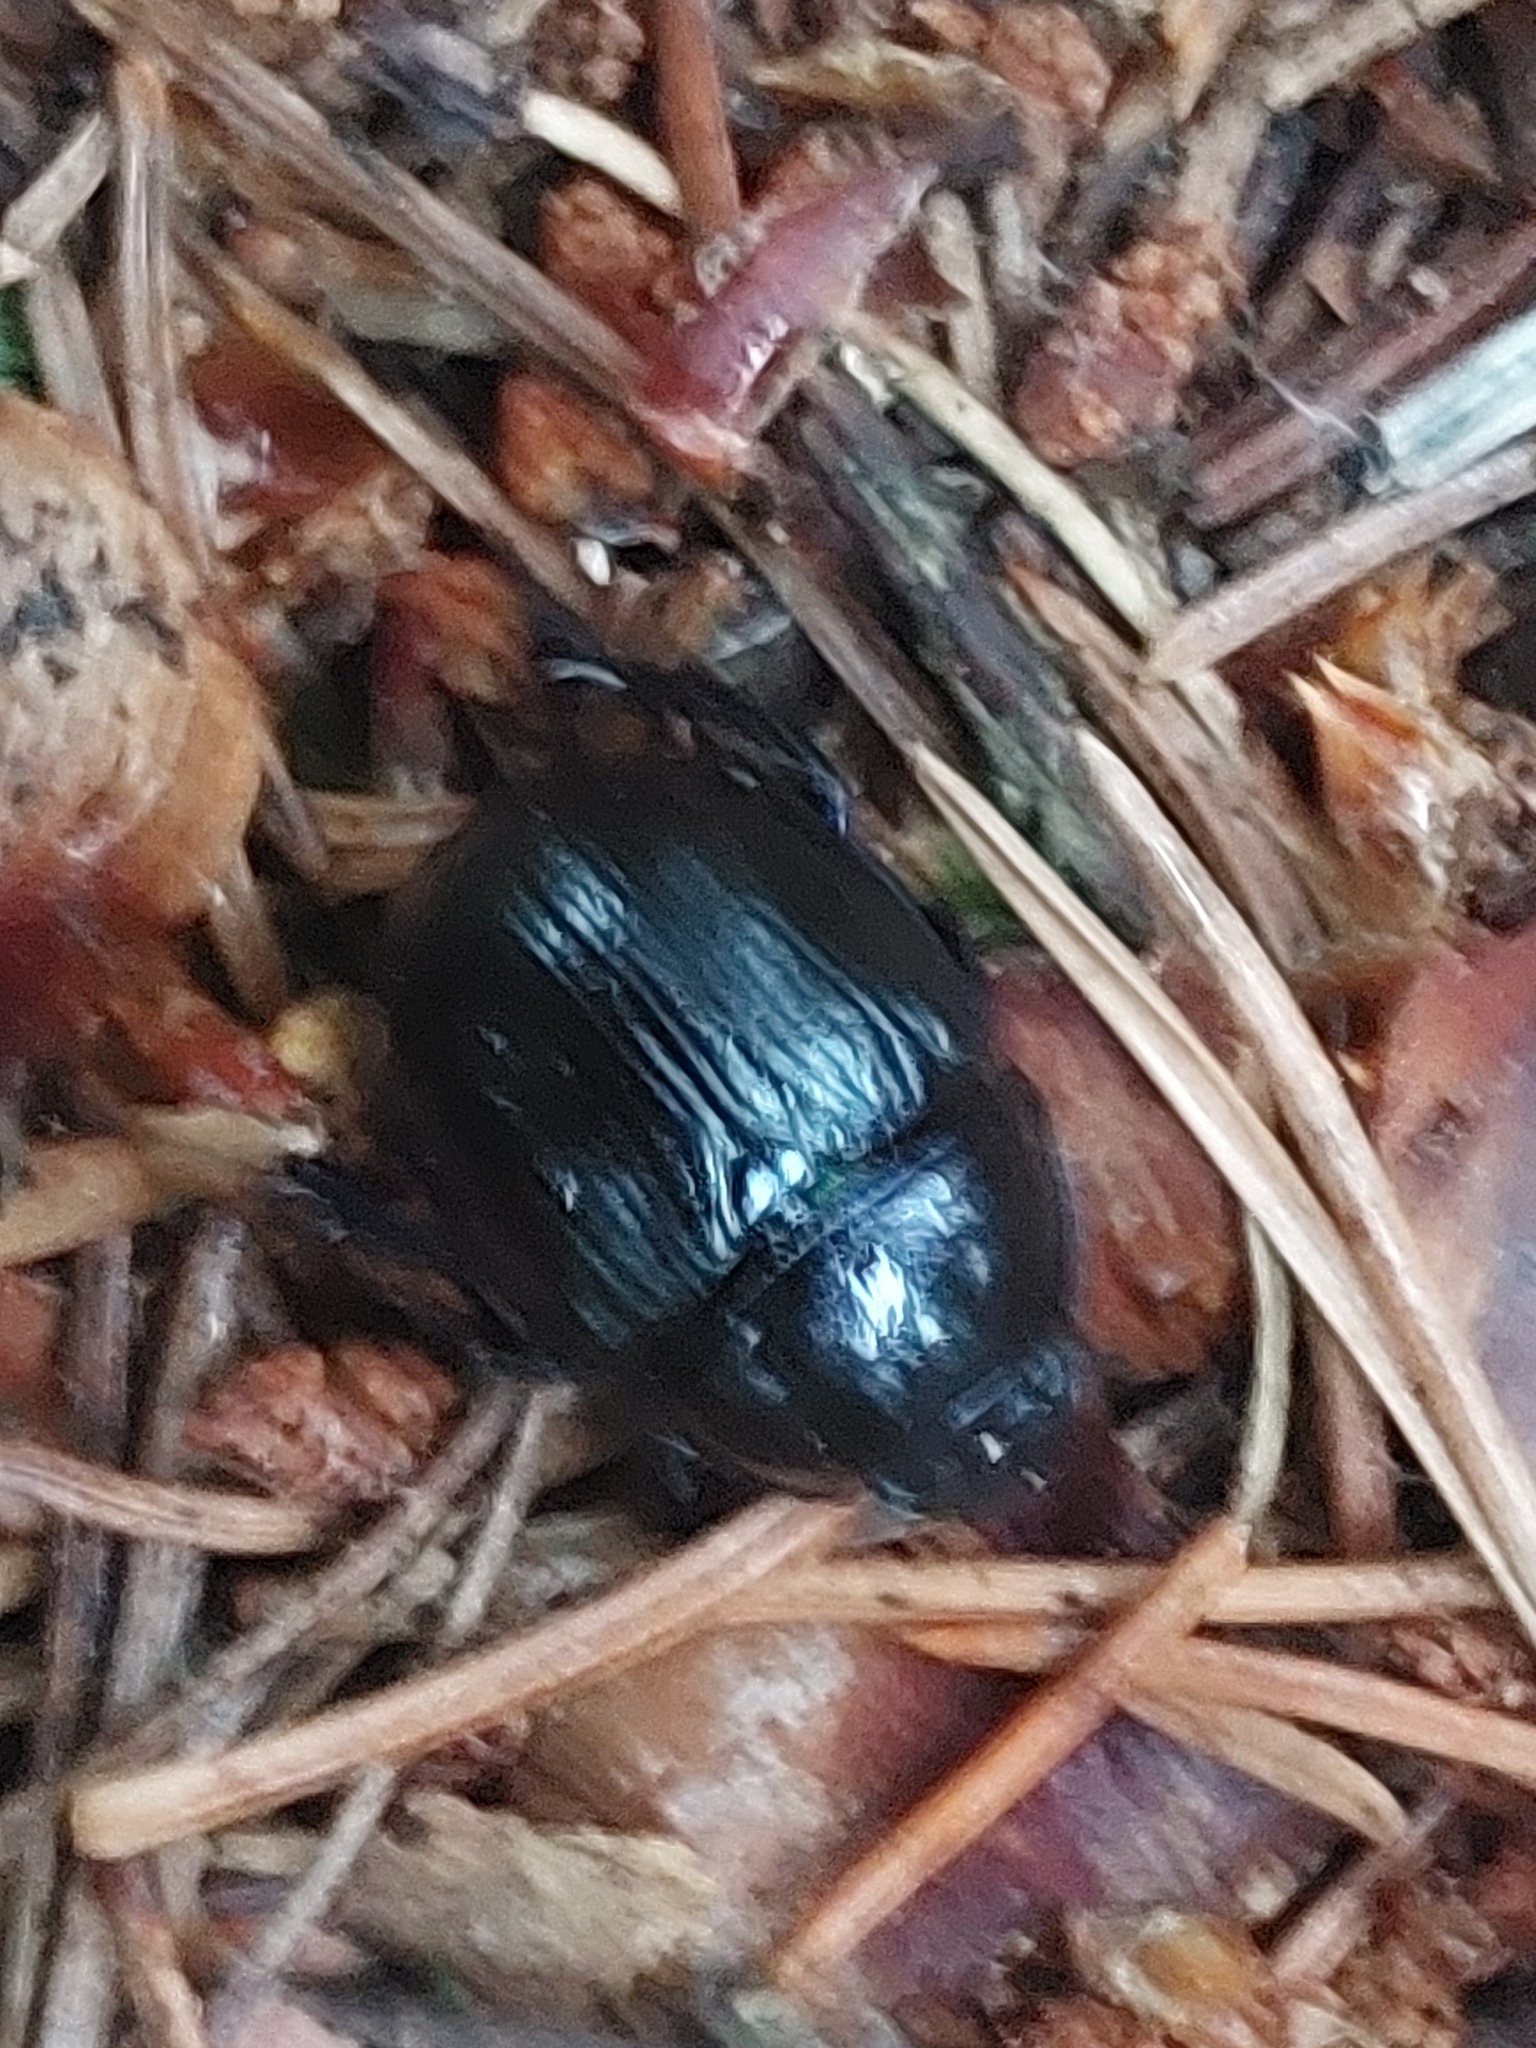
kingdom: Animalia
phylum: Arthropoda
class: Insecta
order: Coleoptera
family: Geotrupidae
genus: Anoplotrupes
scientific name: Anoplotrupes stercorosus
